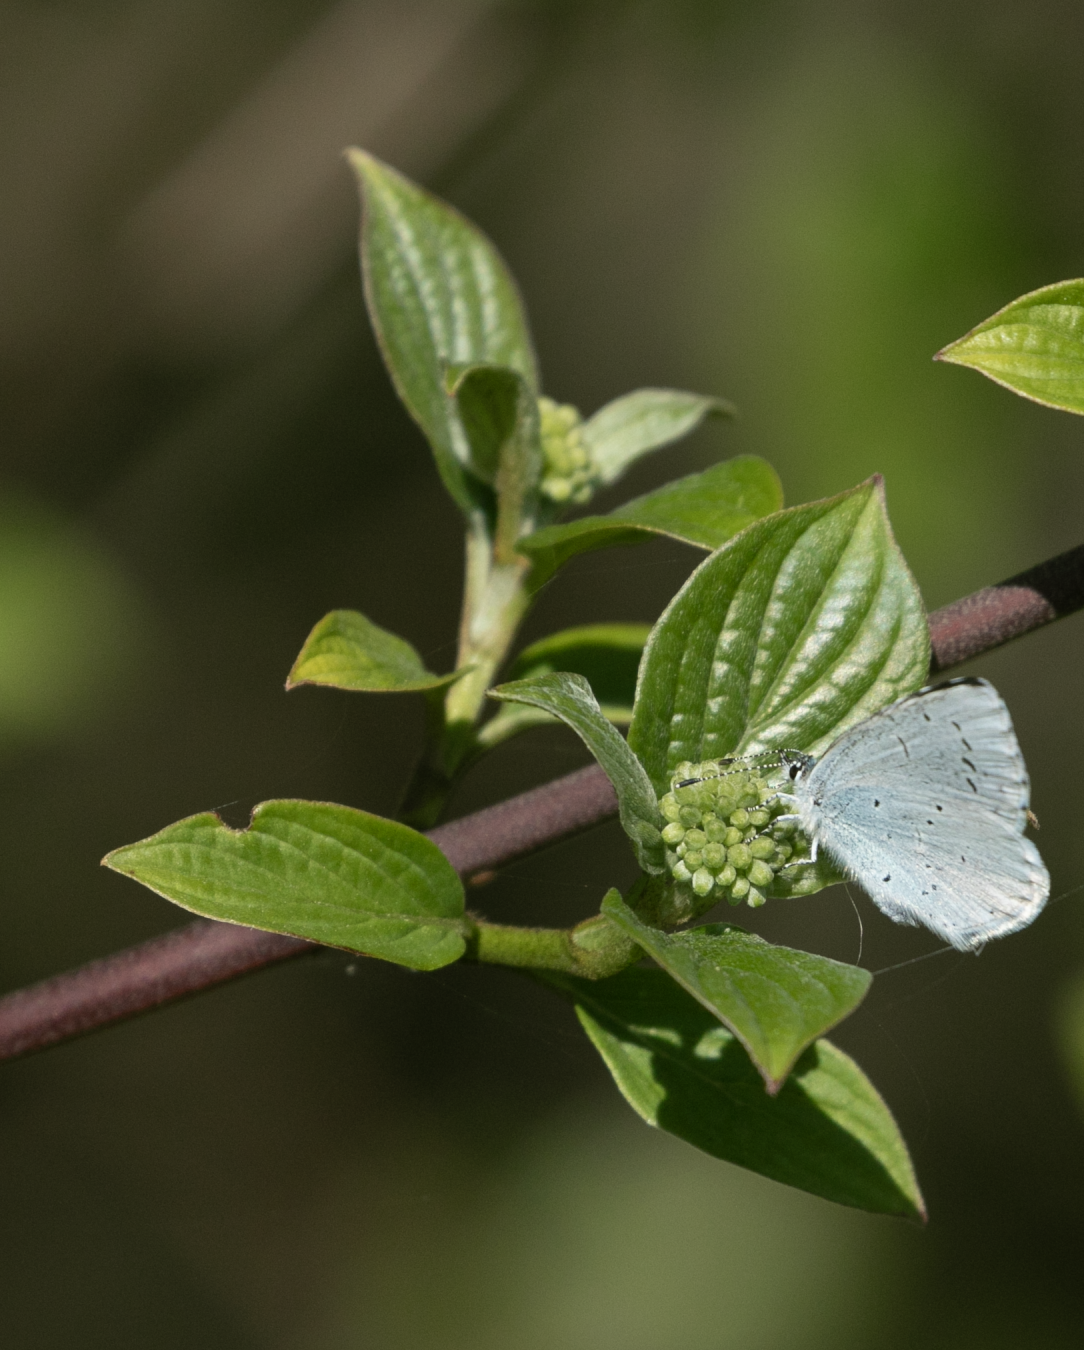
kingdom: Animalia
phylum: Arthropoda
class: Insecta
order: Lepidoptera
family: Lycaenidae
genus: Celastrina
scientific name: Celastrina argiolus
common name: Holly blue
